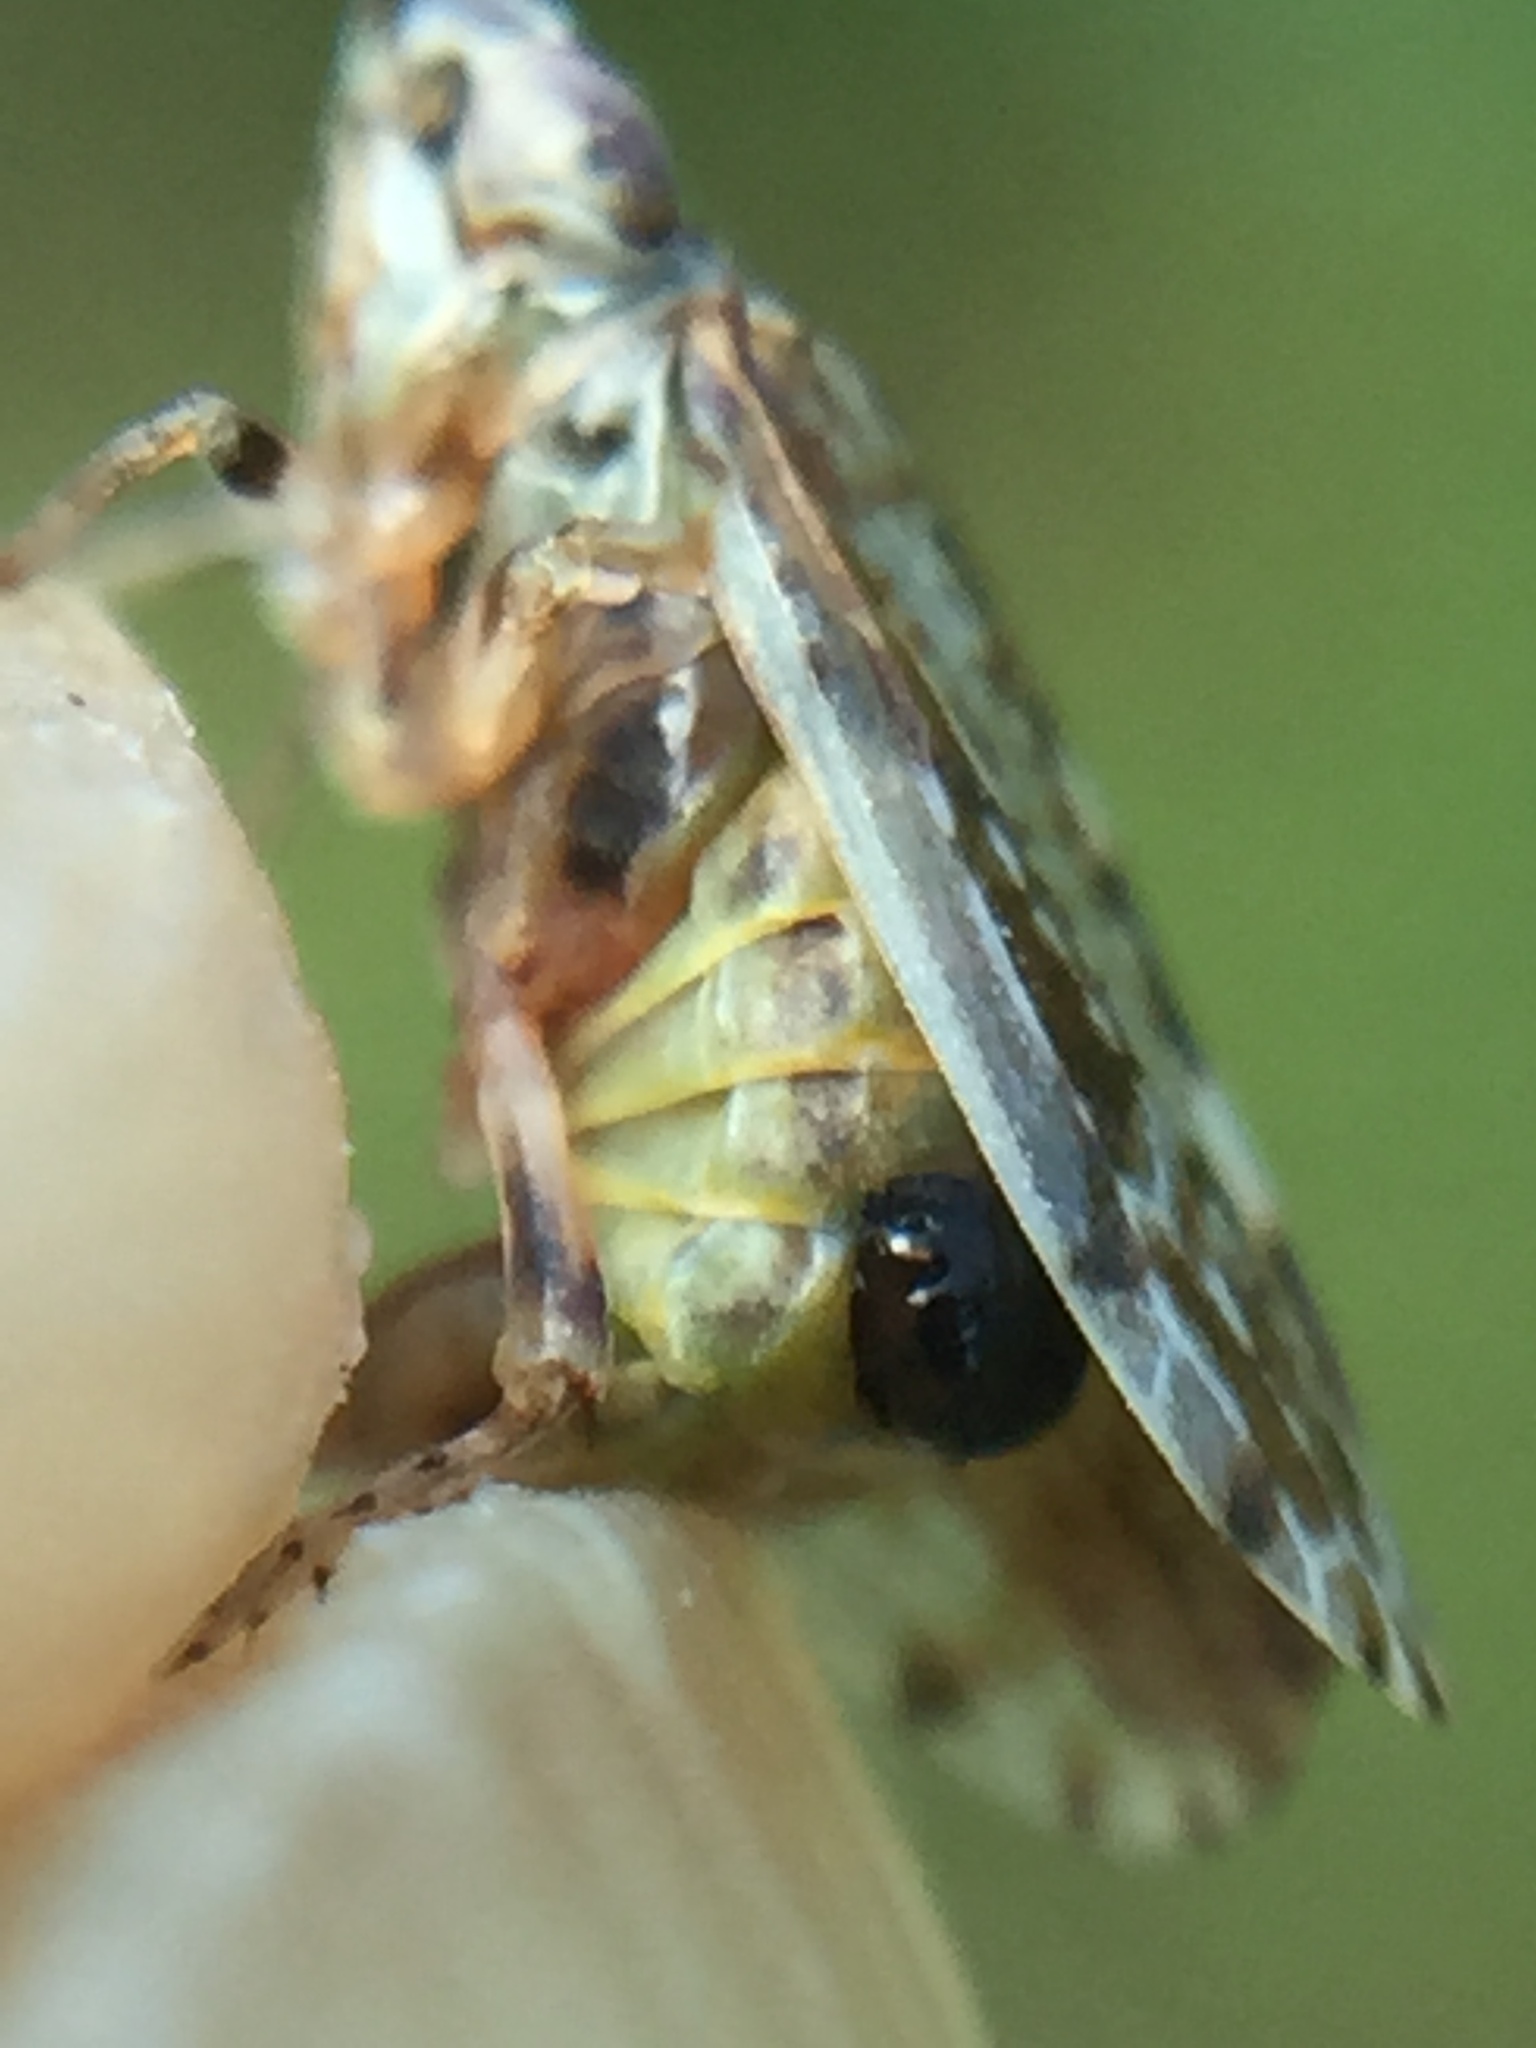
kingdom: Animalia
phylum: Arthropoda
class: Insecta
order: Strepsiptera
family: Halictophagidae
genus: Coriophagus
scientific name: Coriophagus casui
